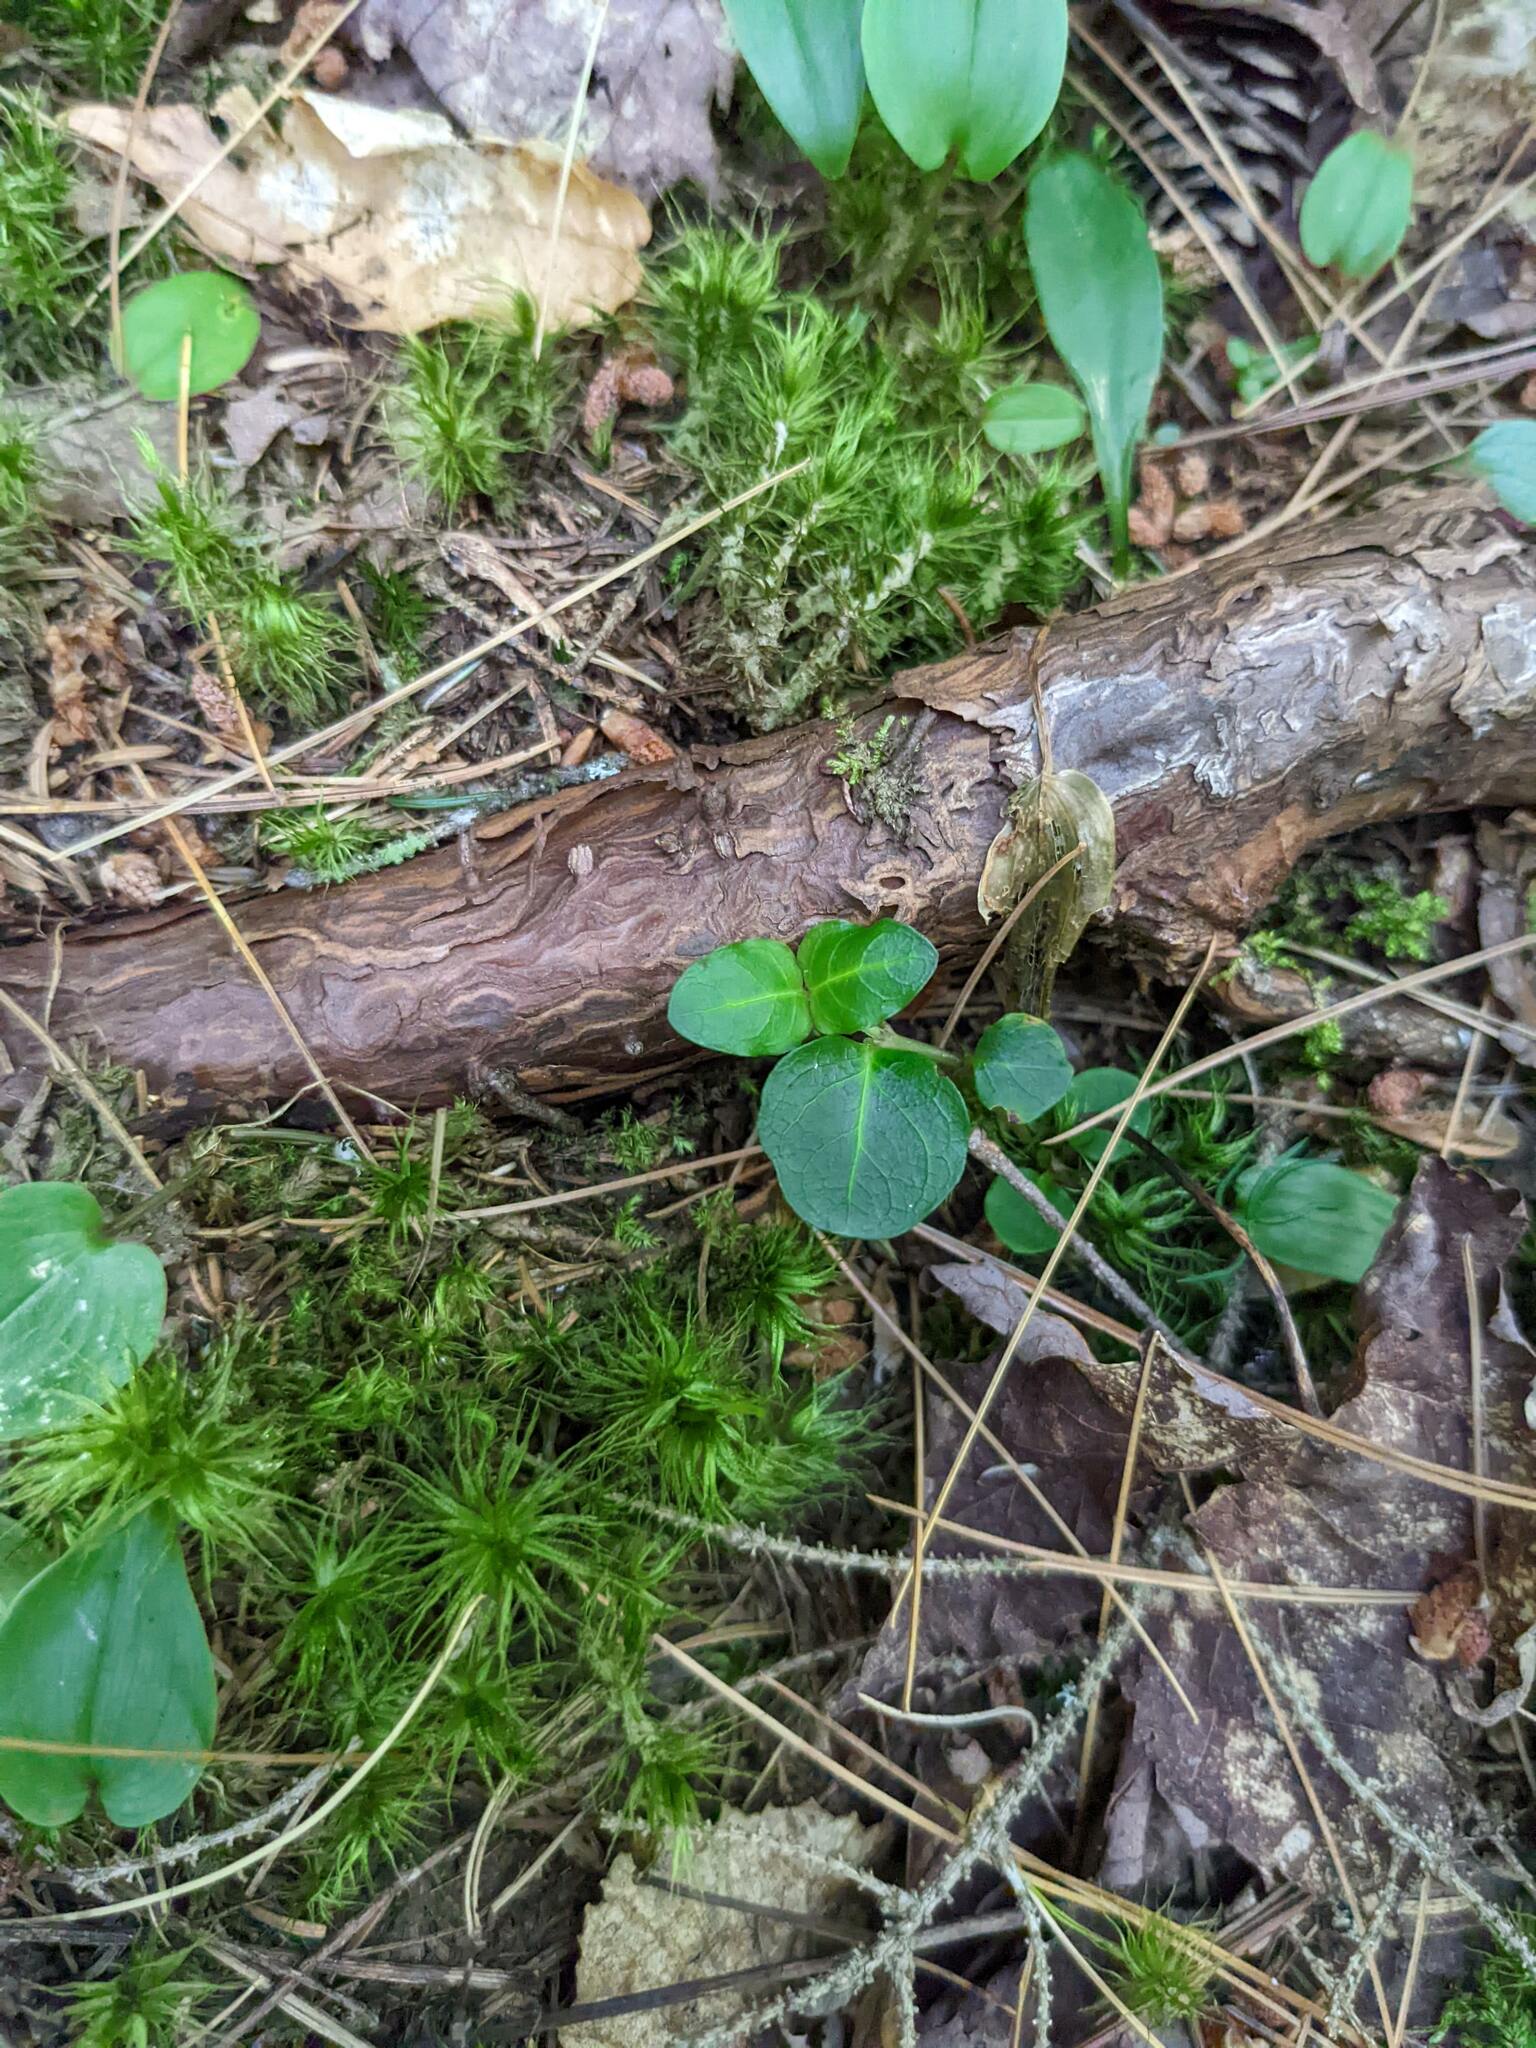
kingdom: Plantae
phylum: Tracheophyta
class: Magnoliopsida
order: Gentianales
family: Rubiaceae
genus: Mitchella
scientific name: Mitchella repens
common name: Partridge-berry
